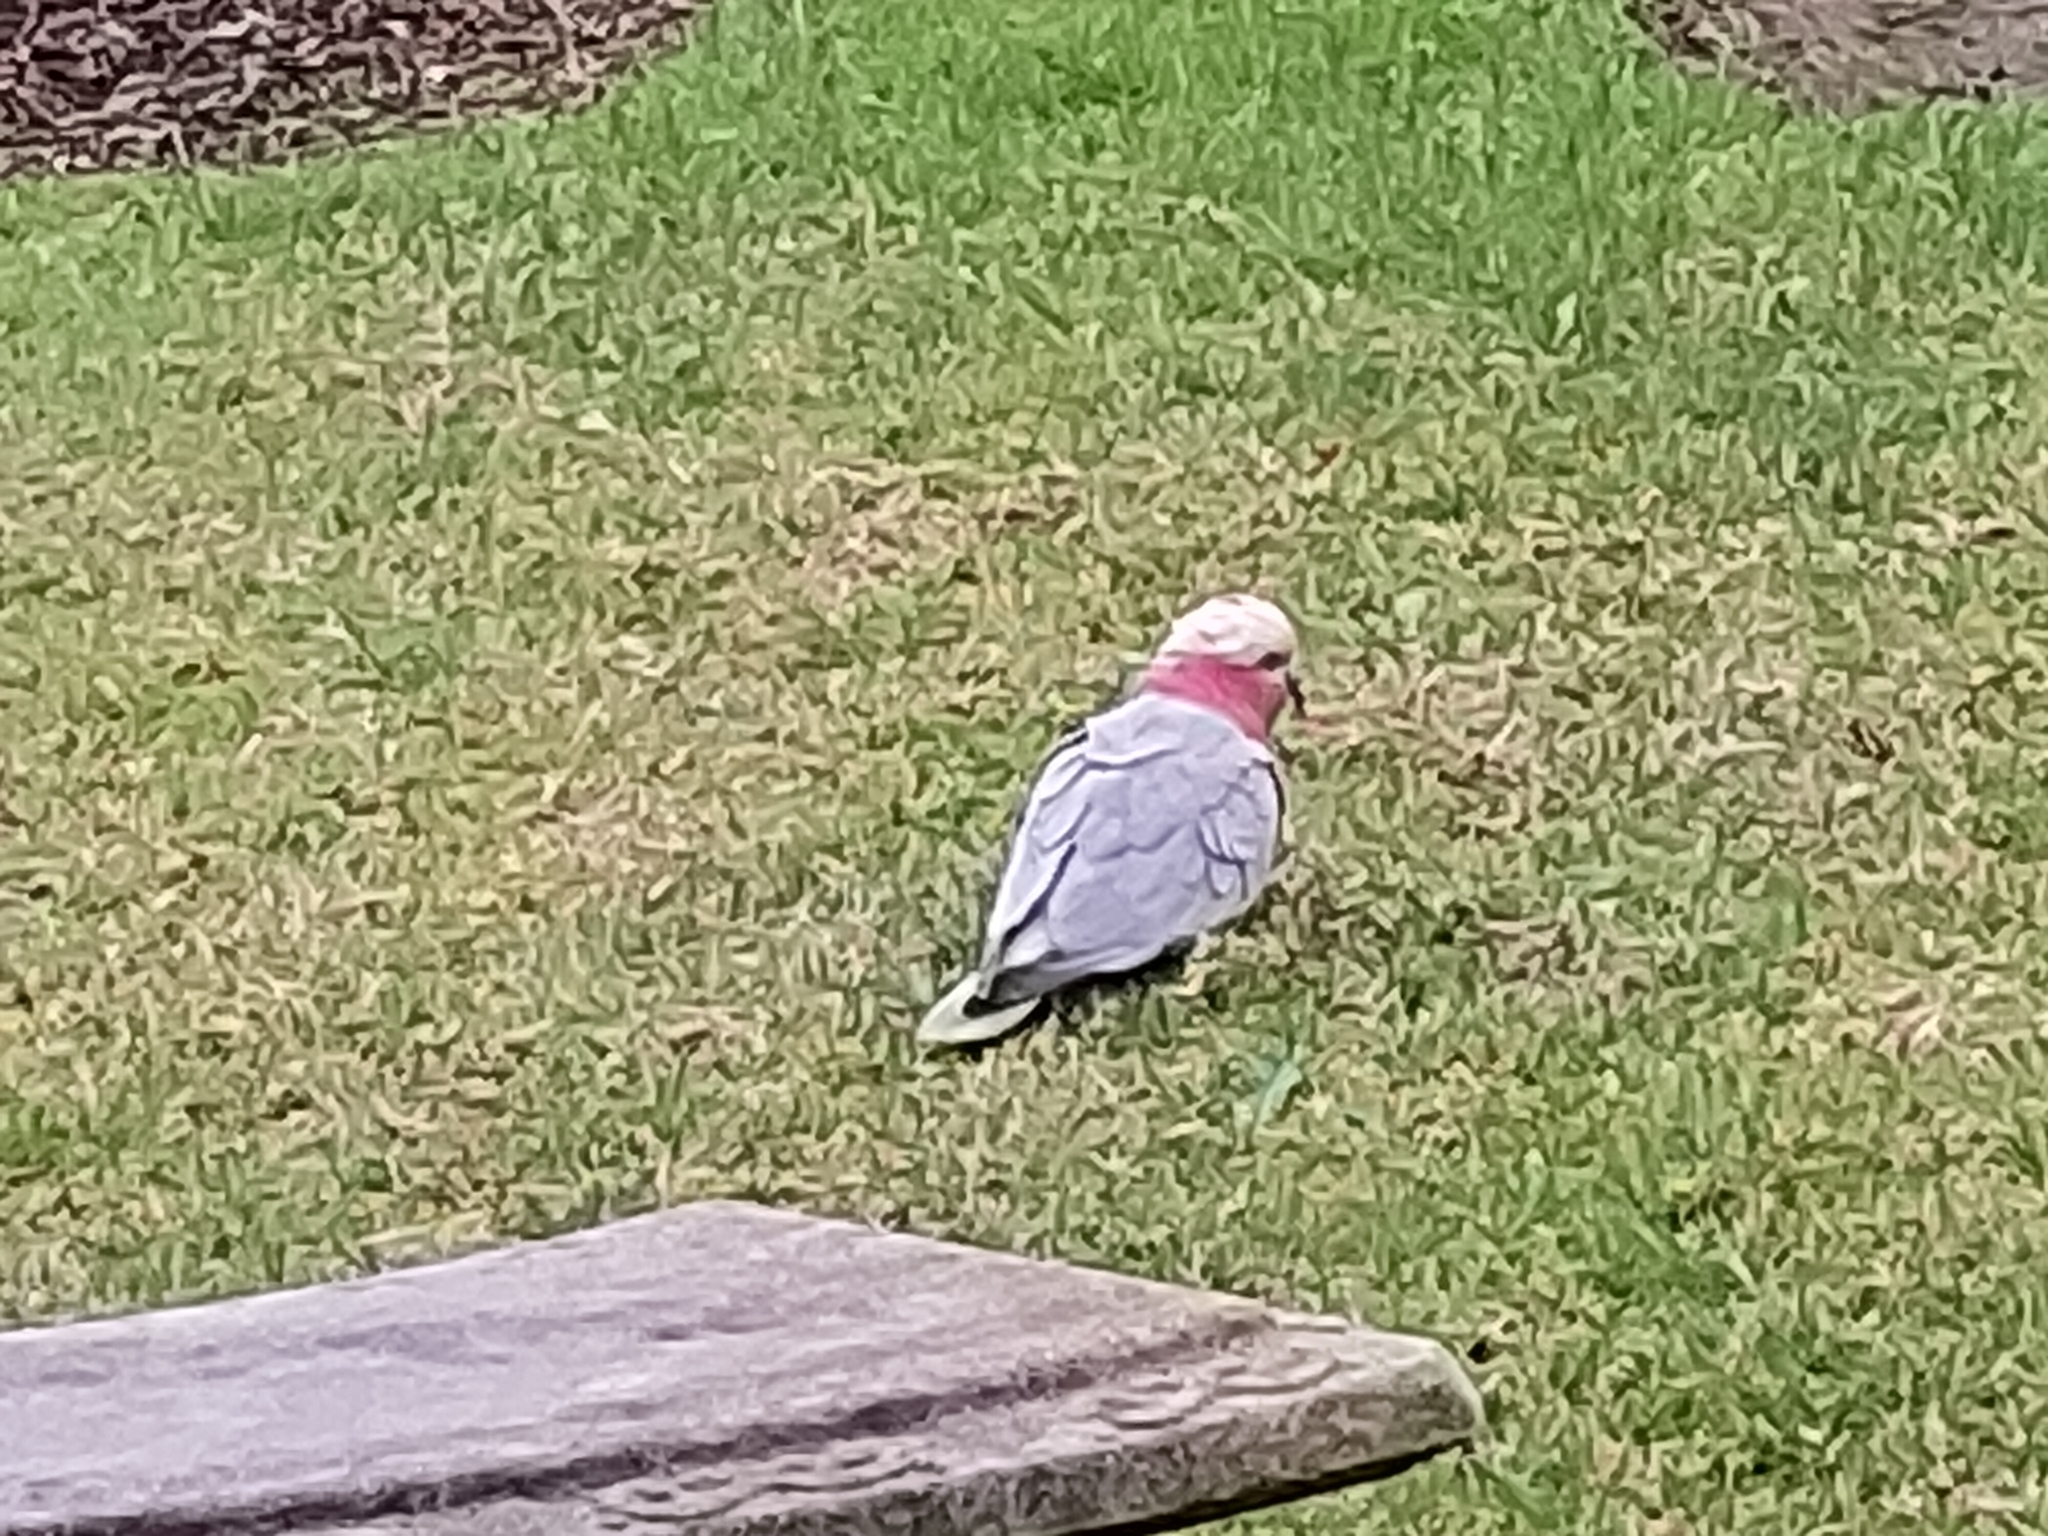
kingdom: Animalia
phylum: Chordata
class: Aves
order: Psittaciformes
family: Psittacidae
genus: Eolophus
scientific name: Eolophus roseicapilla
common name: Galah
